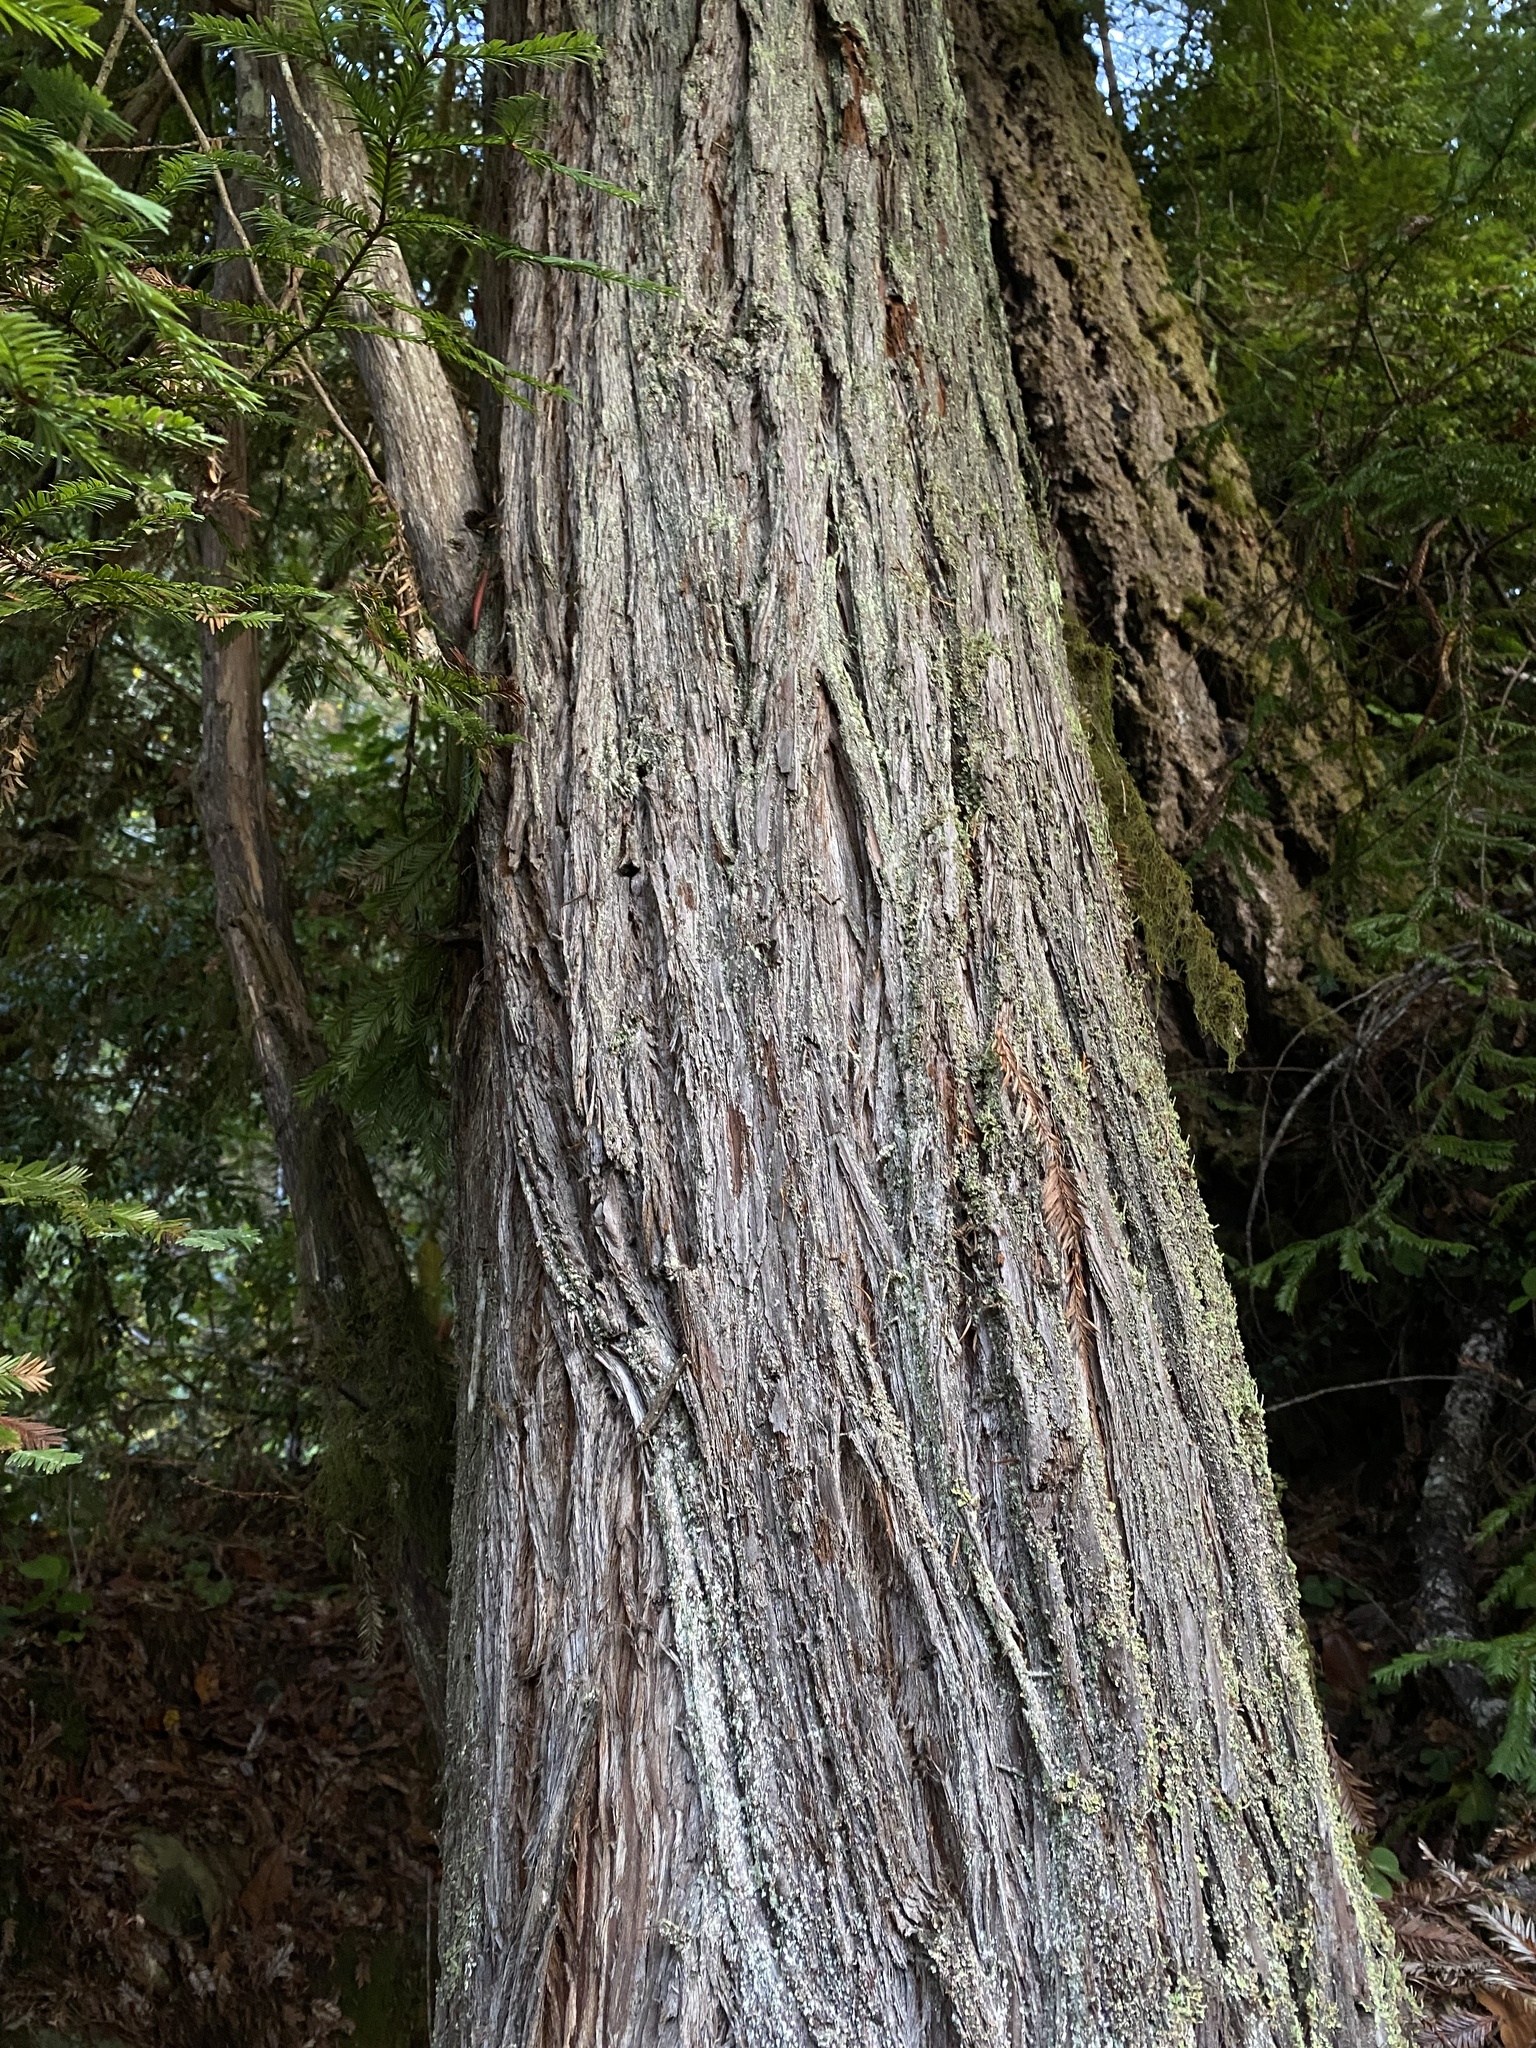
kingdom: Plantae
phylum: Tracheophyta
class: Pinopsida
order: Pinales
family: Cupressaceae
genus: Sequoia
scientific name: Sequoia sempervirens
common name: Coast redwood
